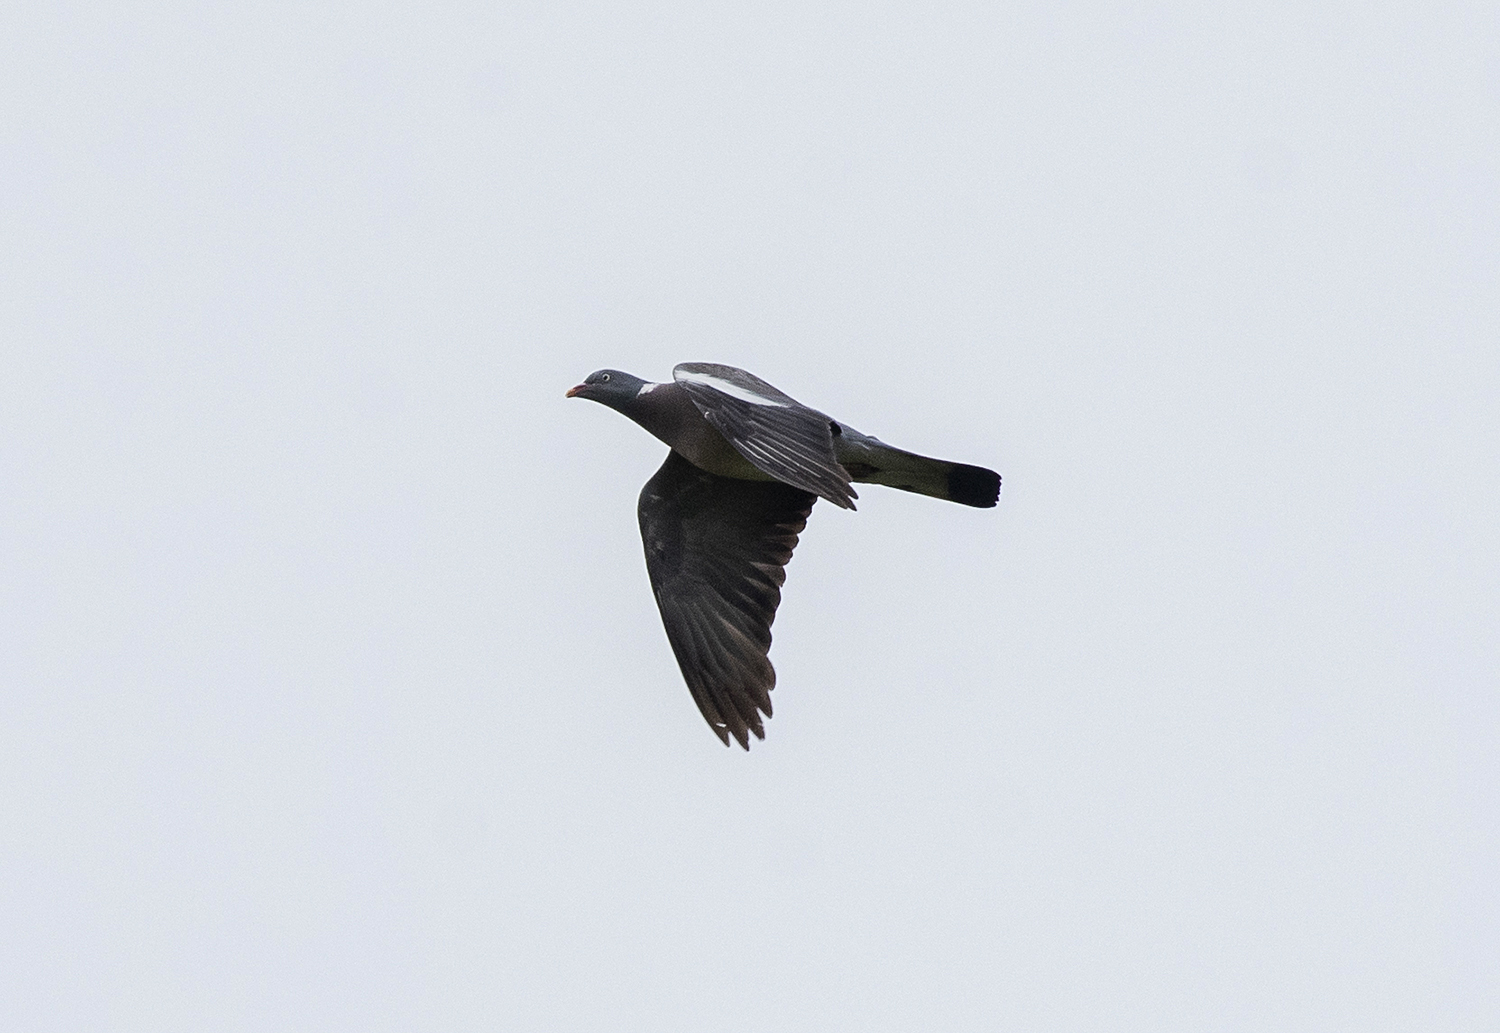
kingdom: Animalia
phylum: Chordata
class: Aves
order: Columbiformes
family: Columbidae
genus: Columba
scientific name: Columba palumbus
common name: Common wood pigeon
